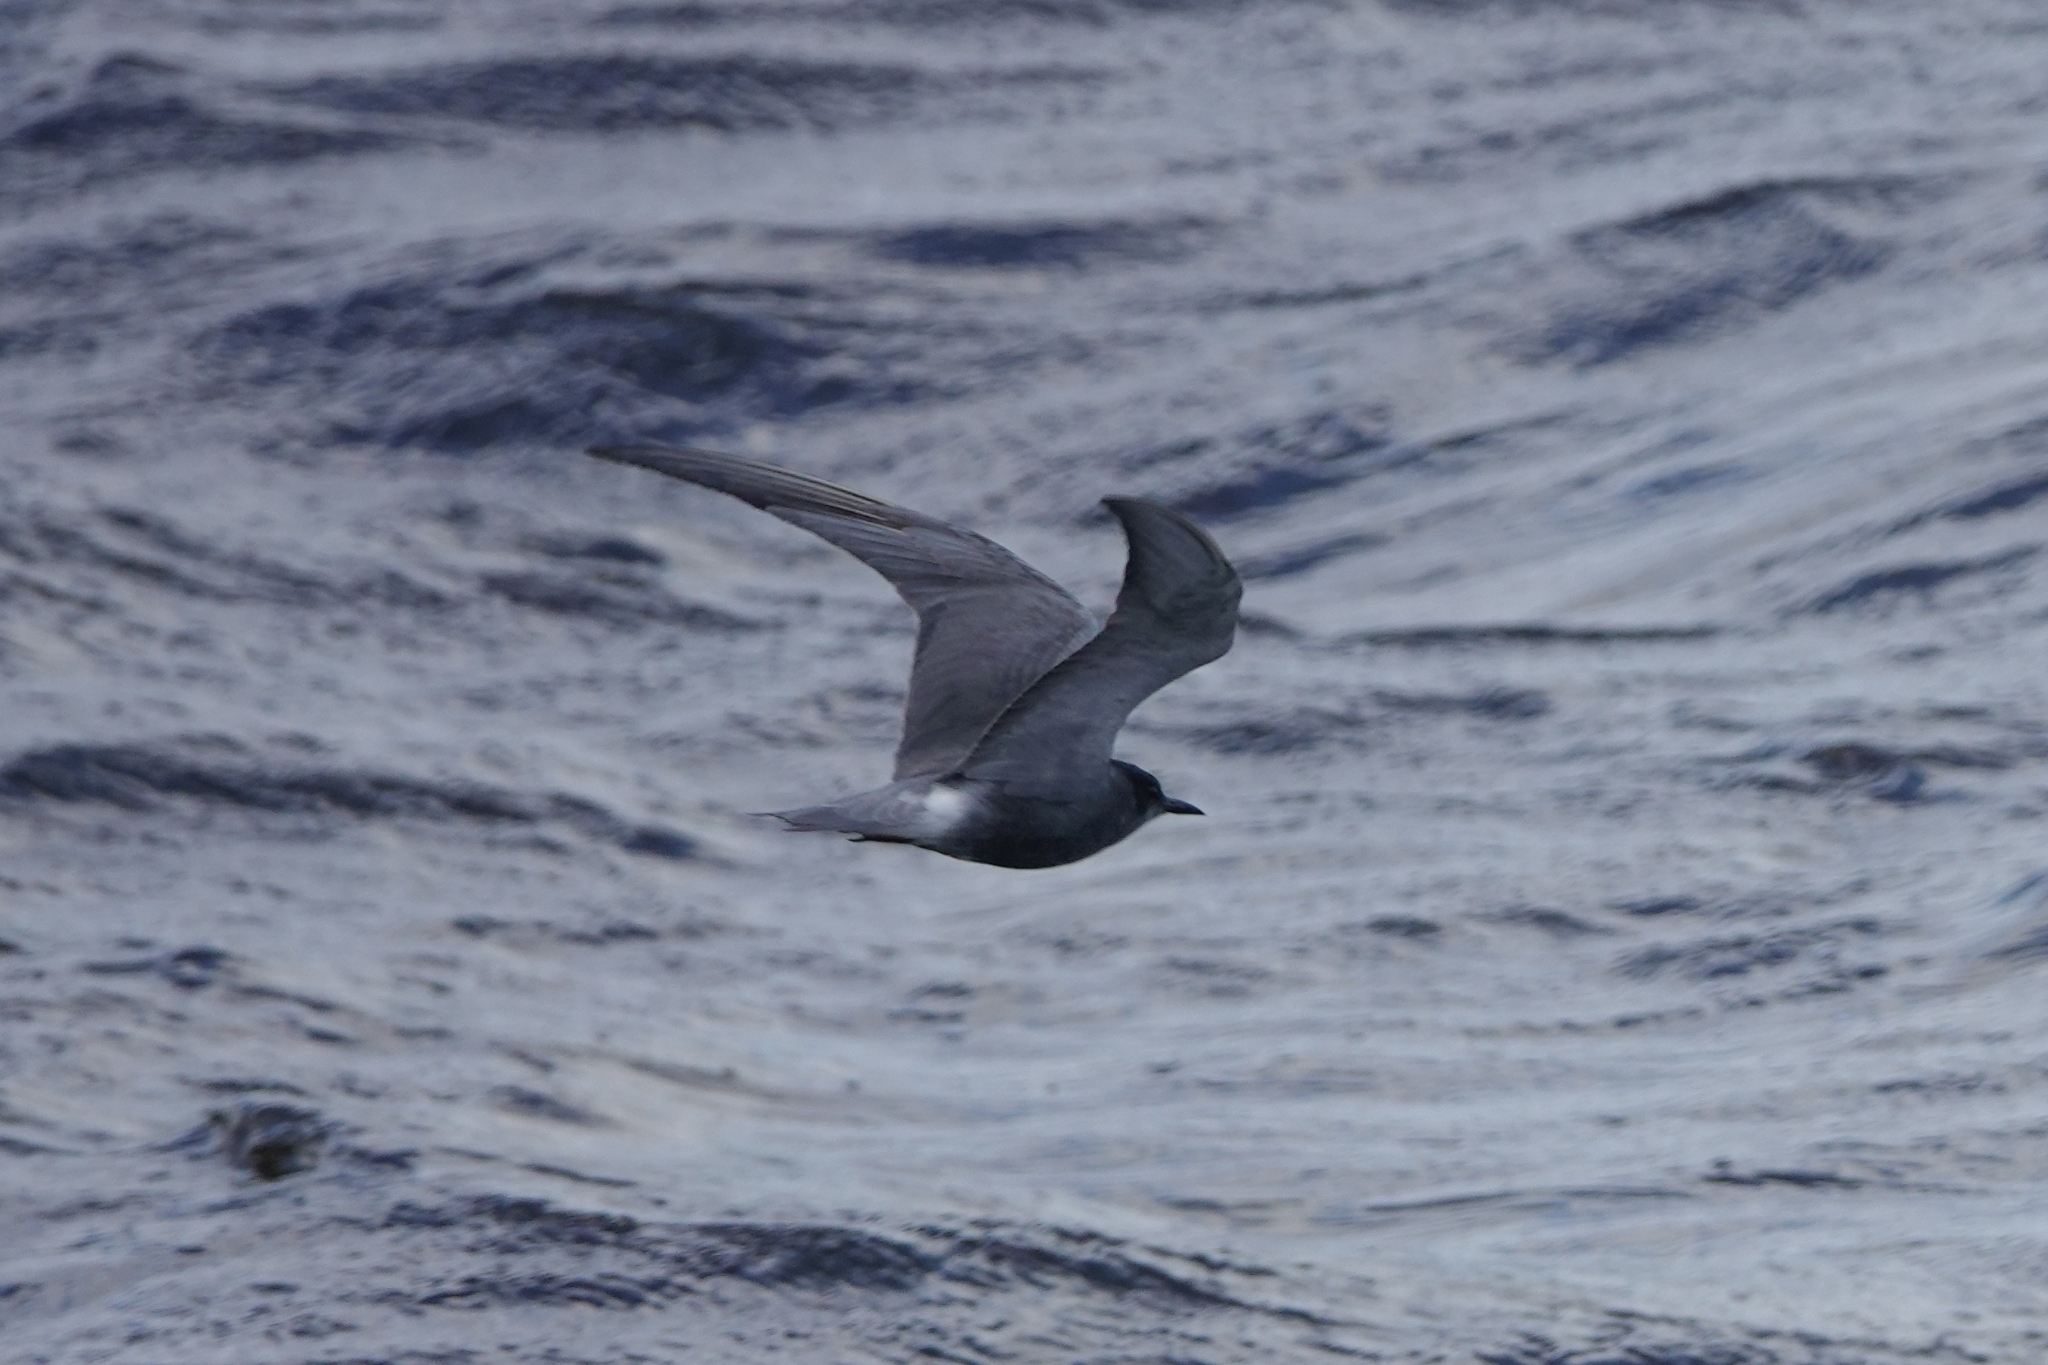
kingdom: Animalia
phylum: Chordata
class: Aves
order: Charadriiformes
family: Laridae
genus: Chlidonias
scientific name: Chlidonias niger
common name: Black tern
